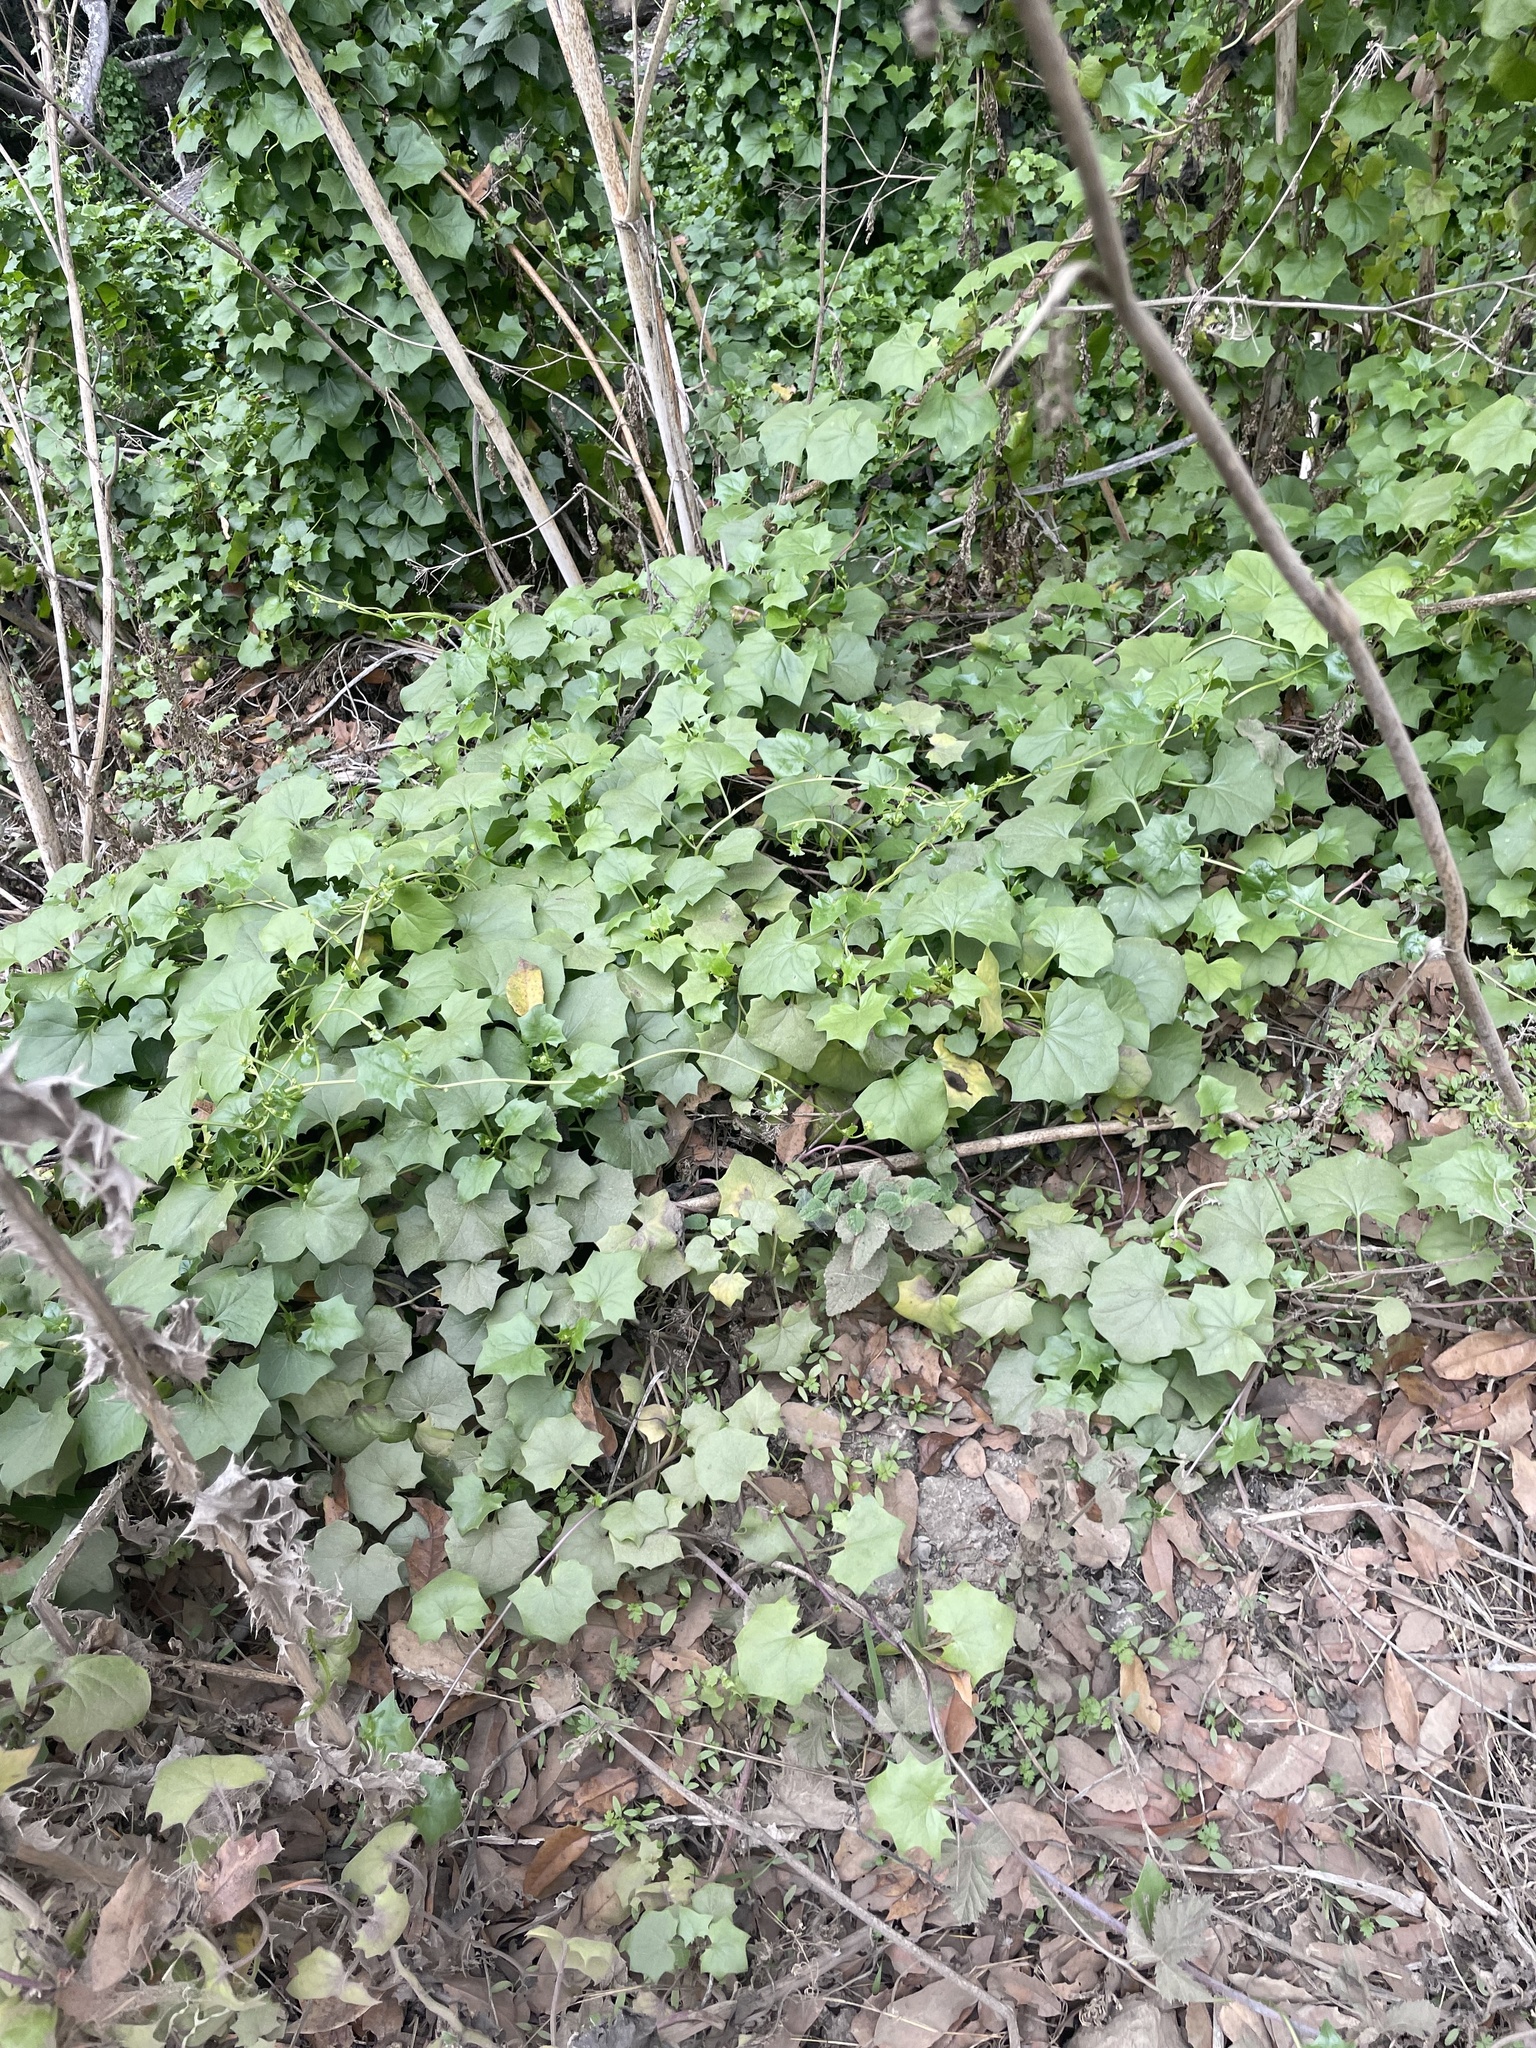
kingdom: Plantae
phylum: Tracheophyta
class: Magnoliopsida
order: Asterales
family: Asteraceae
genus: Delairea
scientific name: Delairea odorata
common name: Cape-ivy
